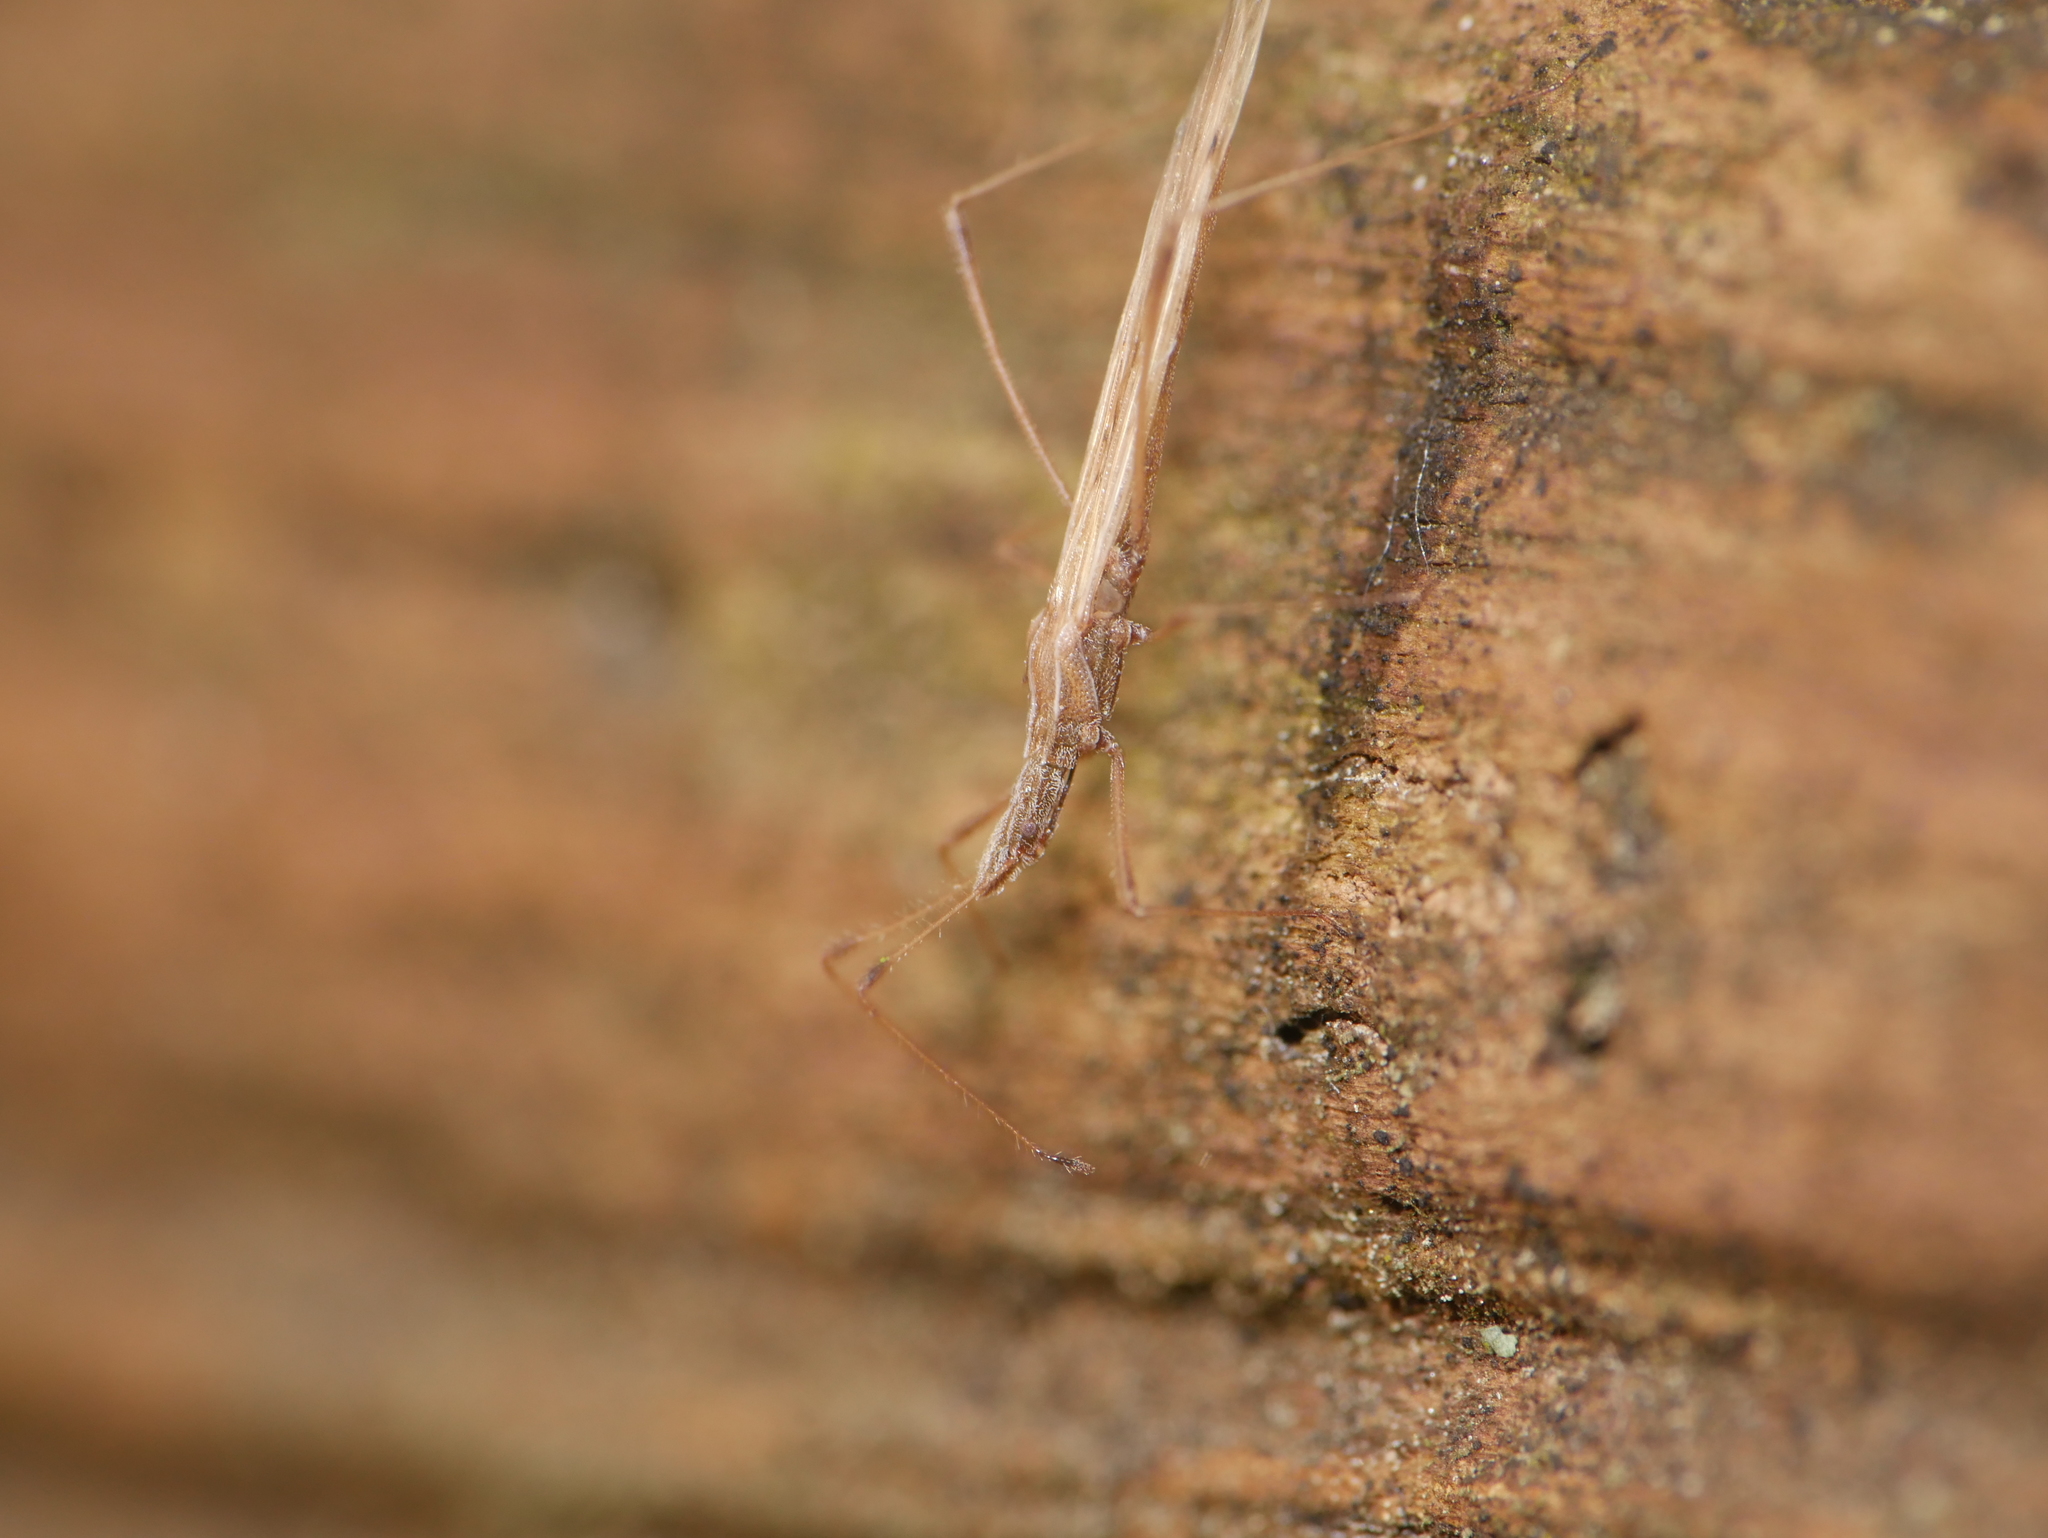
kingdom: Animalia
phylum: Arthropoda
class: Insecta
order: Hemiptera
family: Berytidae
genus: Berytinus
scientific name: Berytinus hirticornis
